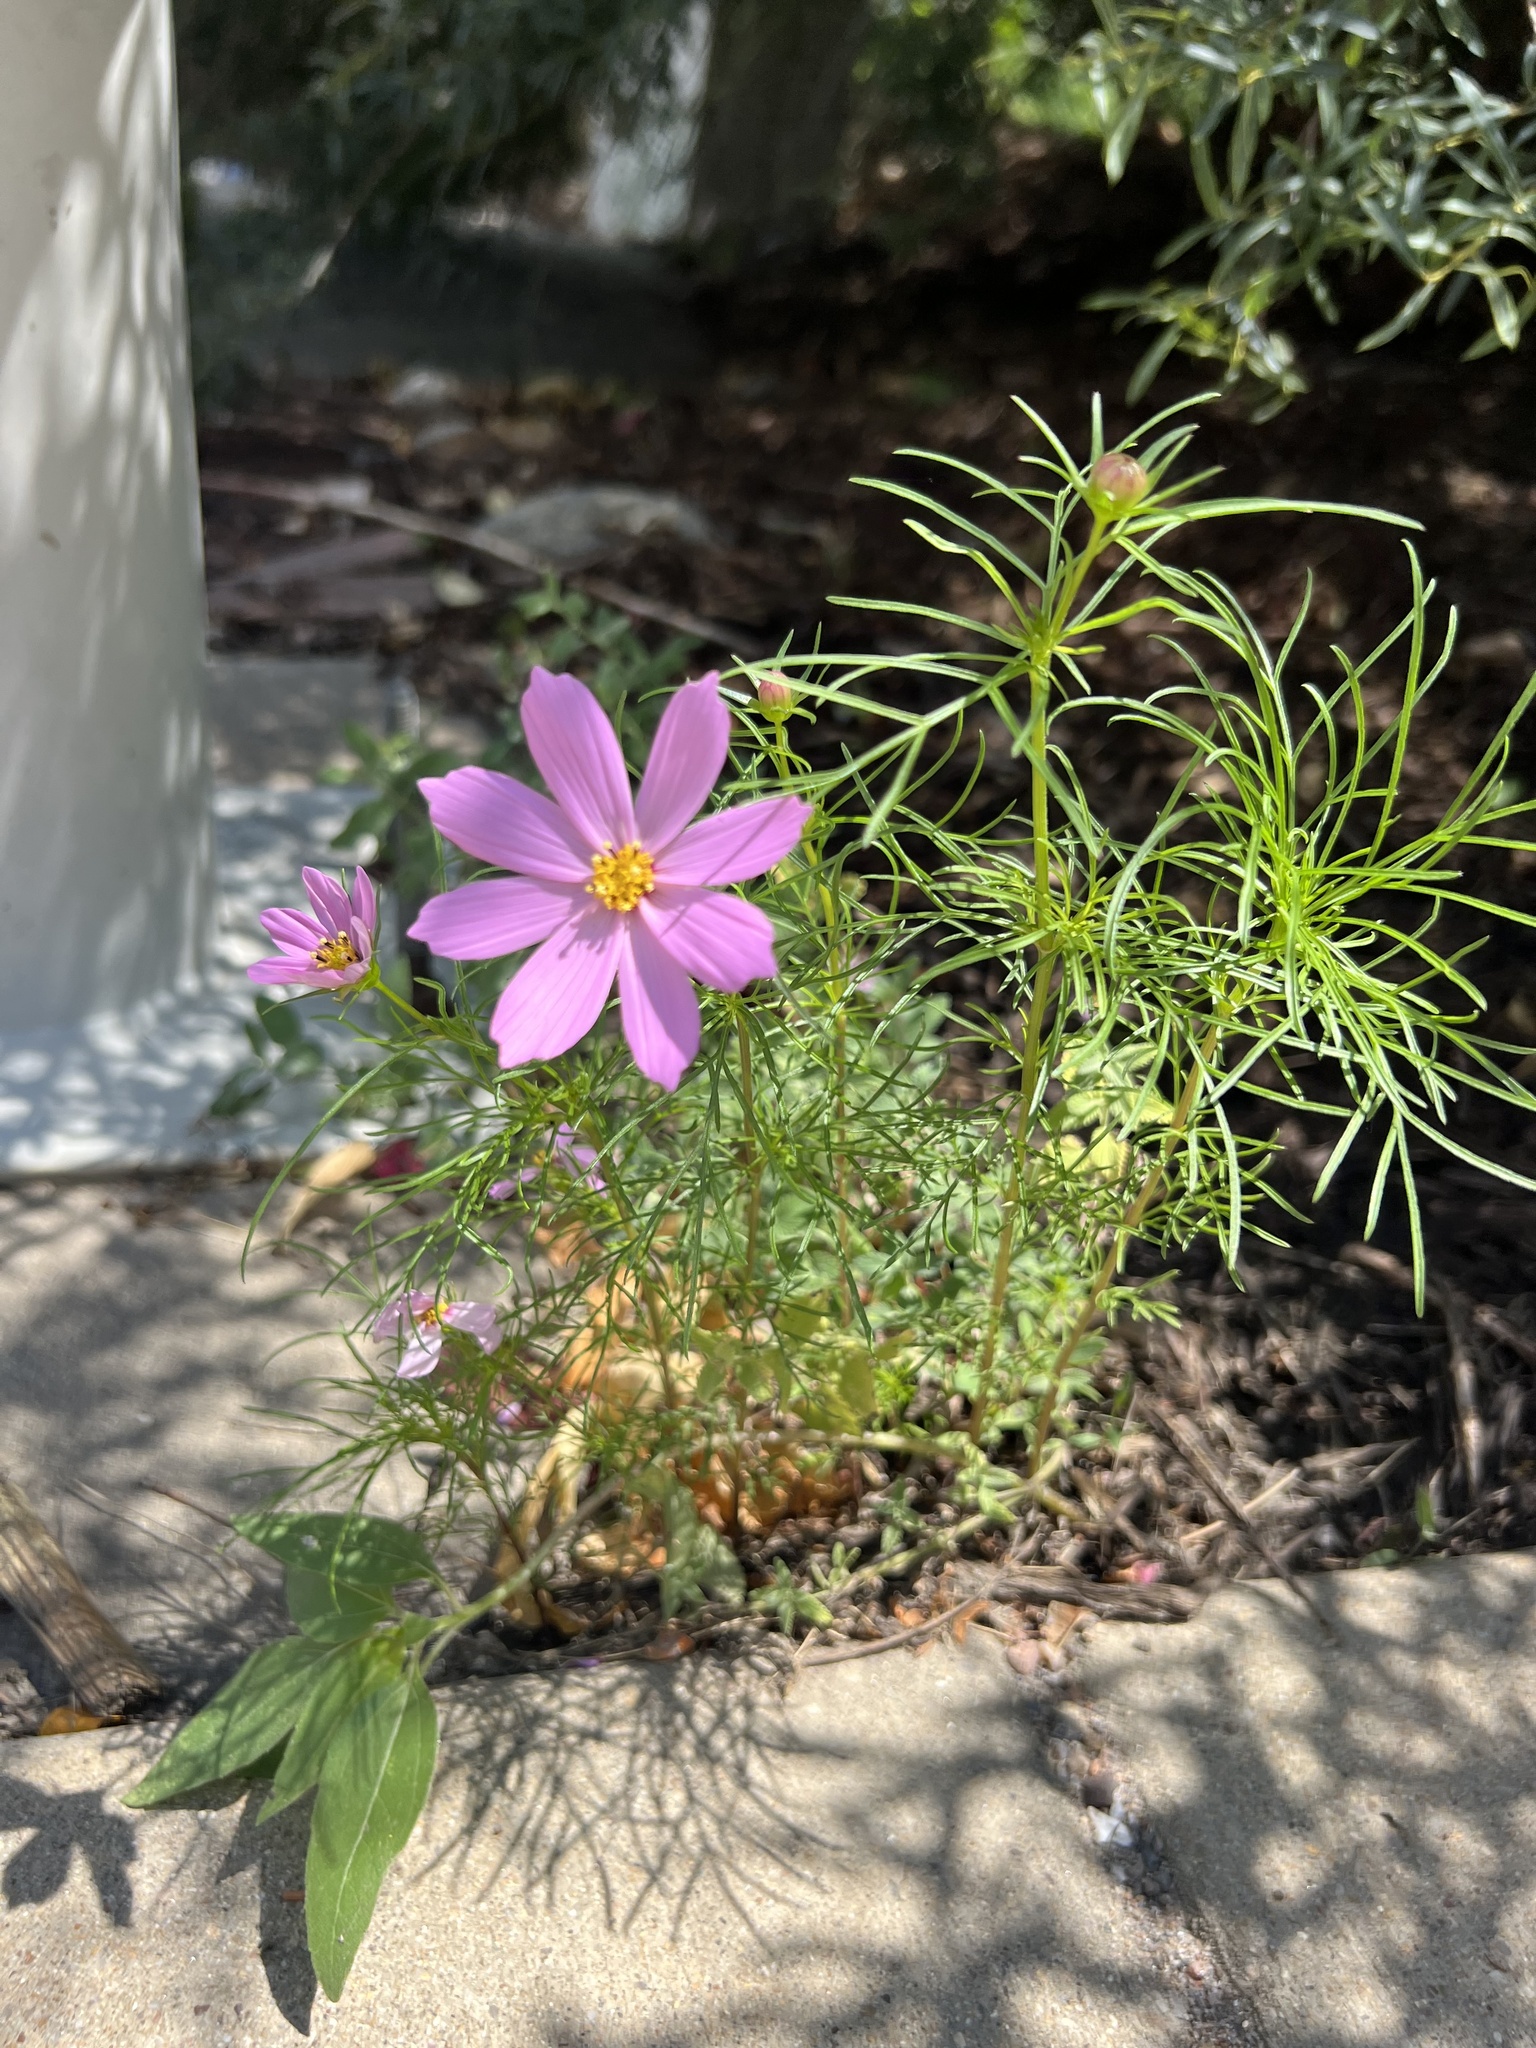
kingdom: Plantae
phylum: Tracheophyta
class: Magnoliopsida
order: Asterales
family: Asteraceae
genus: Cosmos
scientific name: Cosmos bipinnatus
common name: Garden cosmos
